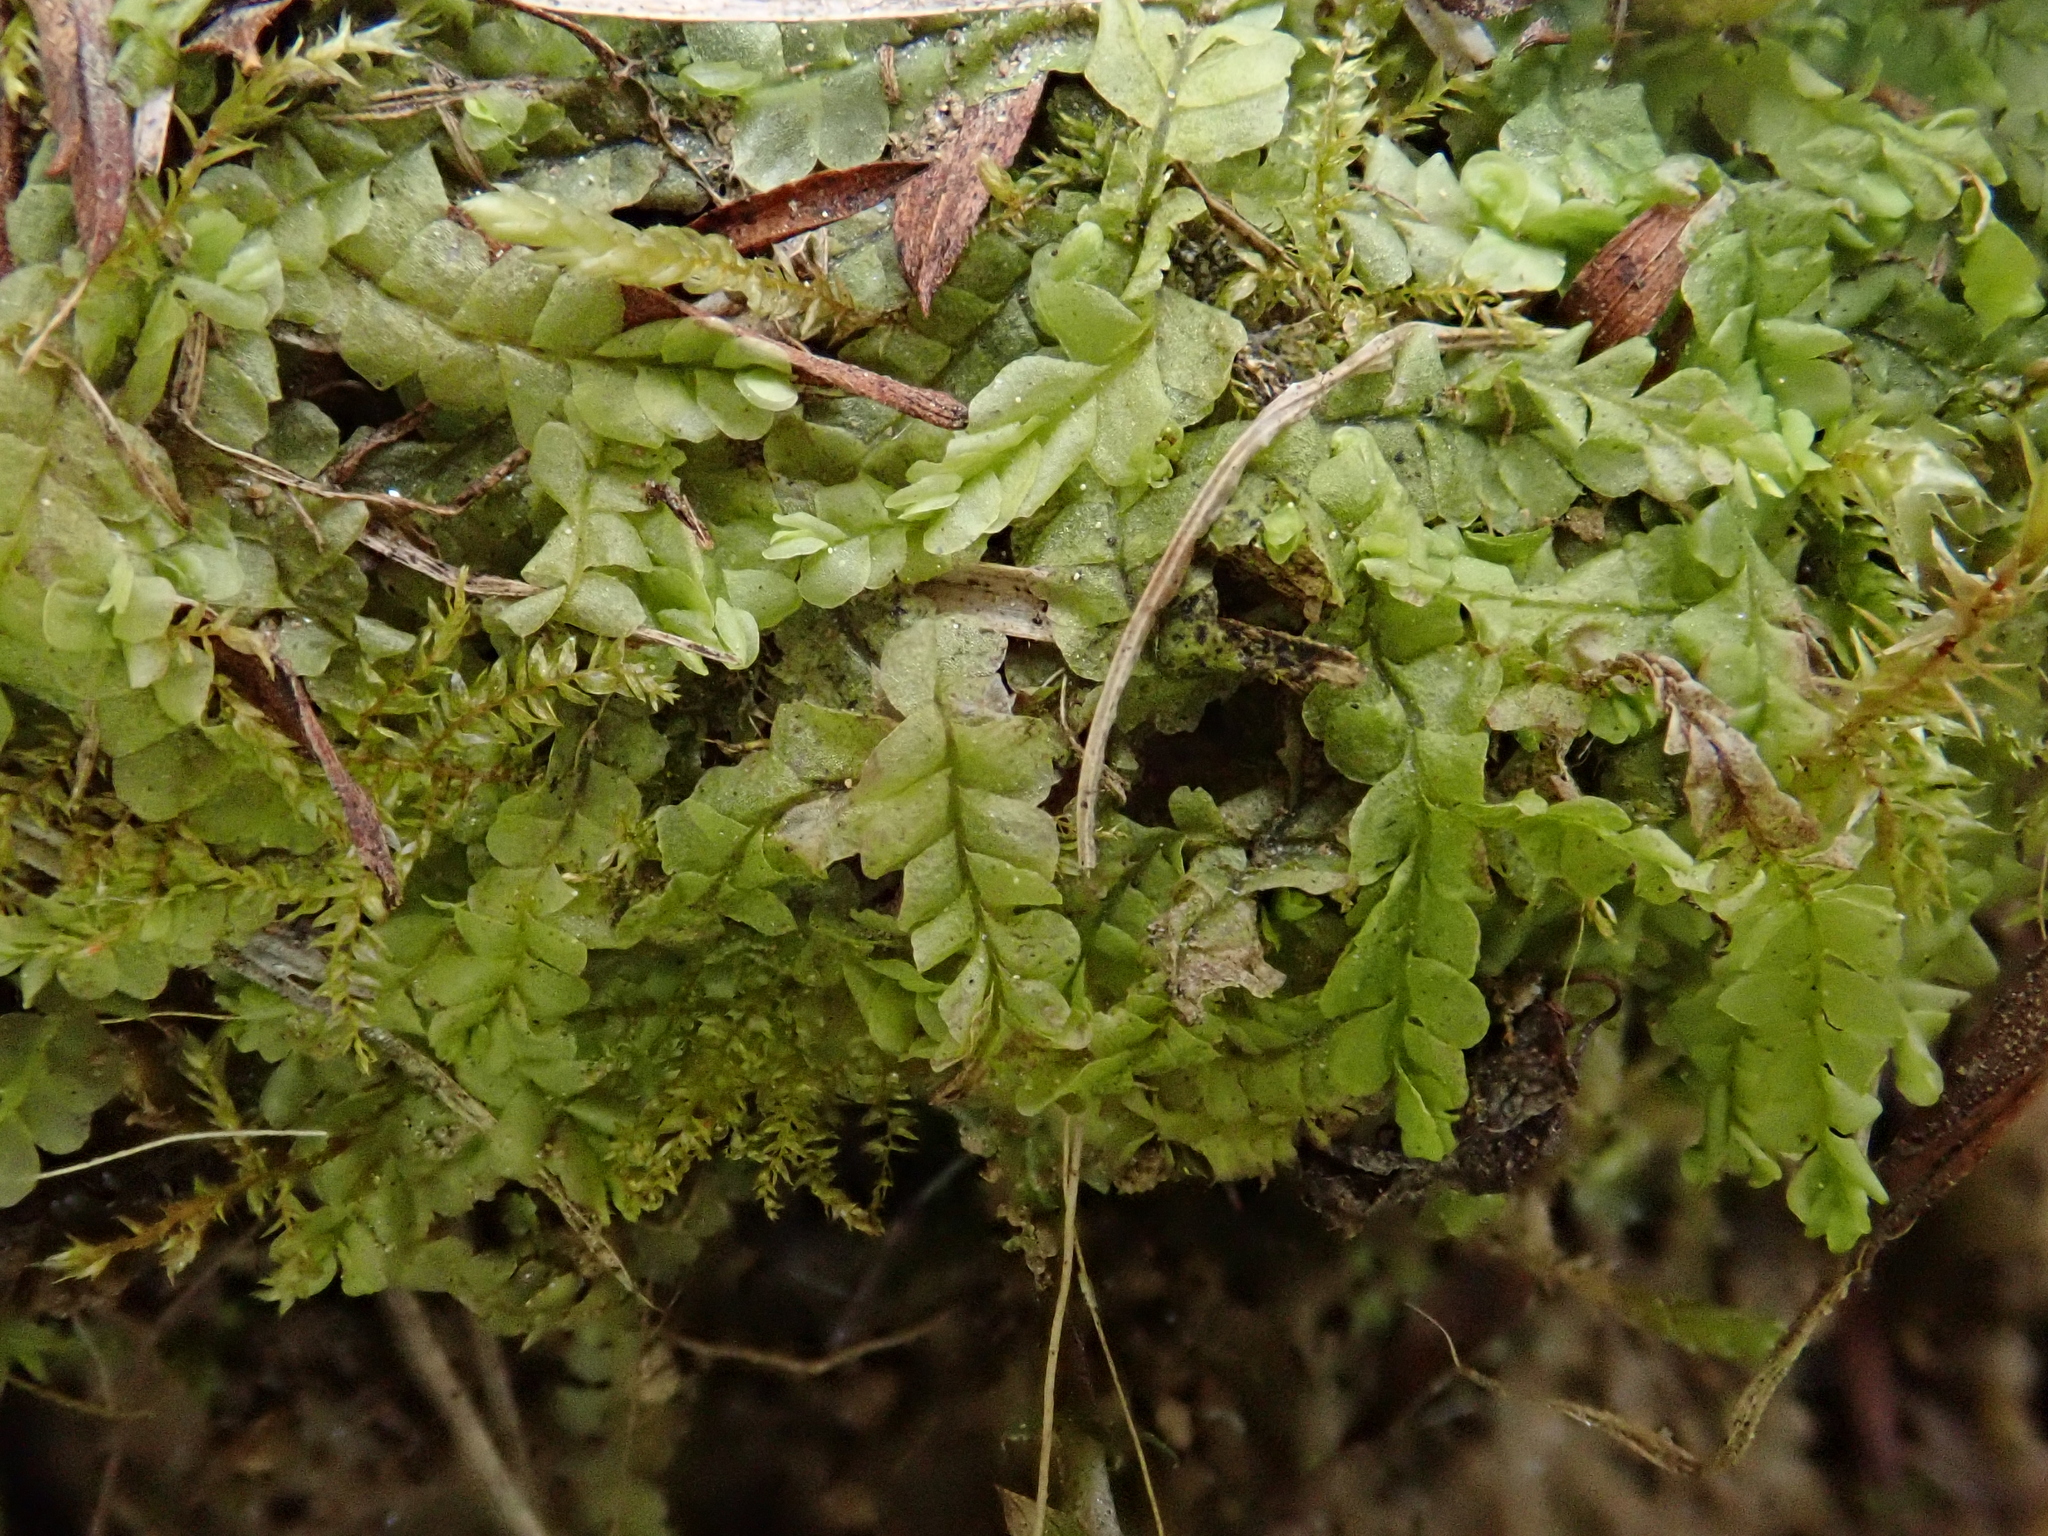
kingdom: Plantae
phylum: Marchantiophyta
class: Jungermanniopsida
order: Jungermanniales
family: Lophocoleaceae
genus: Chiloscyphus
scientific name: Chiloscyphus pallescens
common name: St winifrid's other moss
